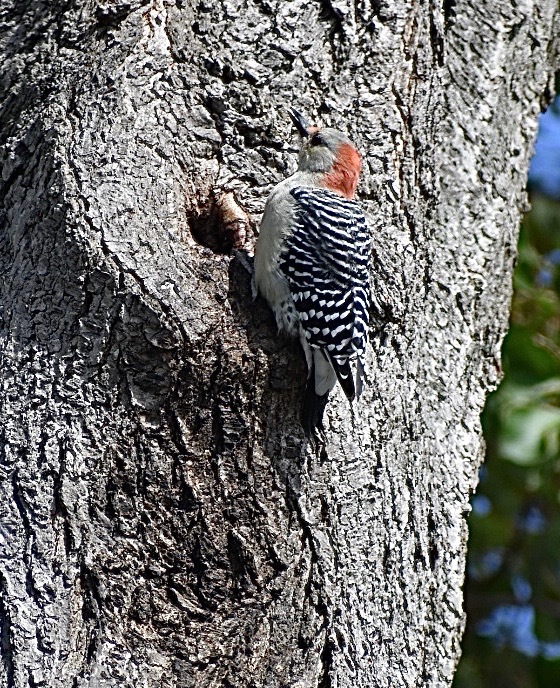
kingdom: Animalia
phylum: Chordata
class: Aves
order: Piciformes
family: Picidae
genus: Melanerpes
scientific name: Melanerpes carolinus
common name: Red-bellied woodpecker
